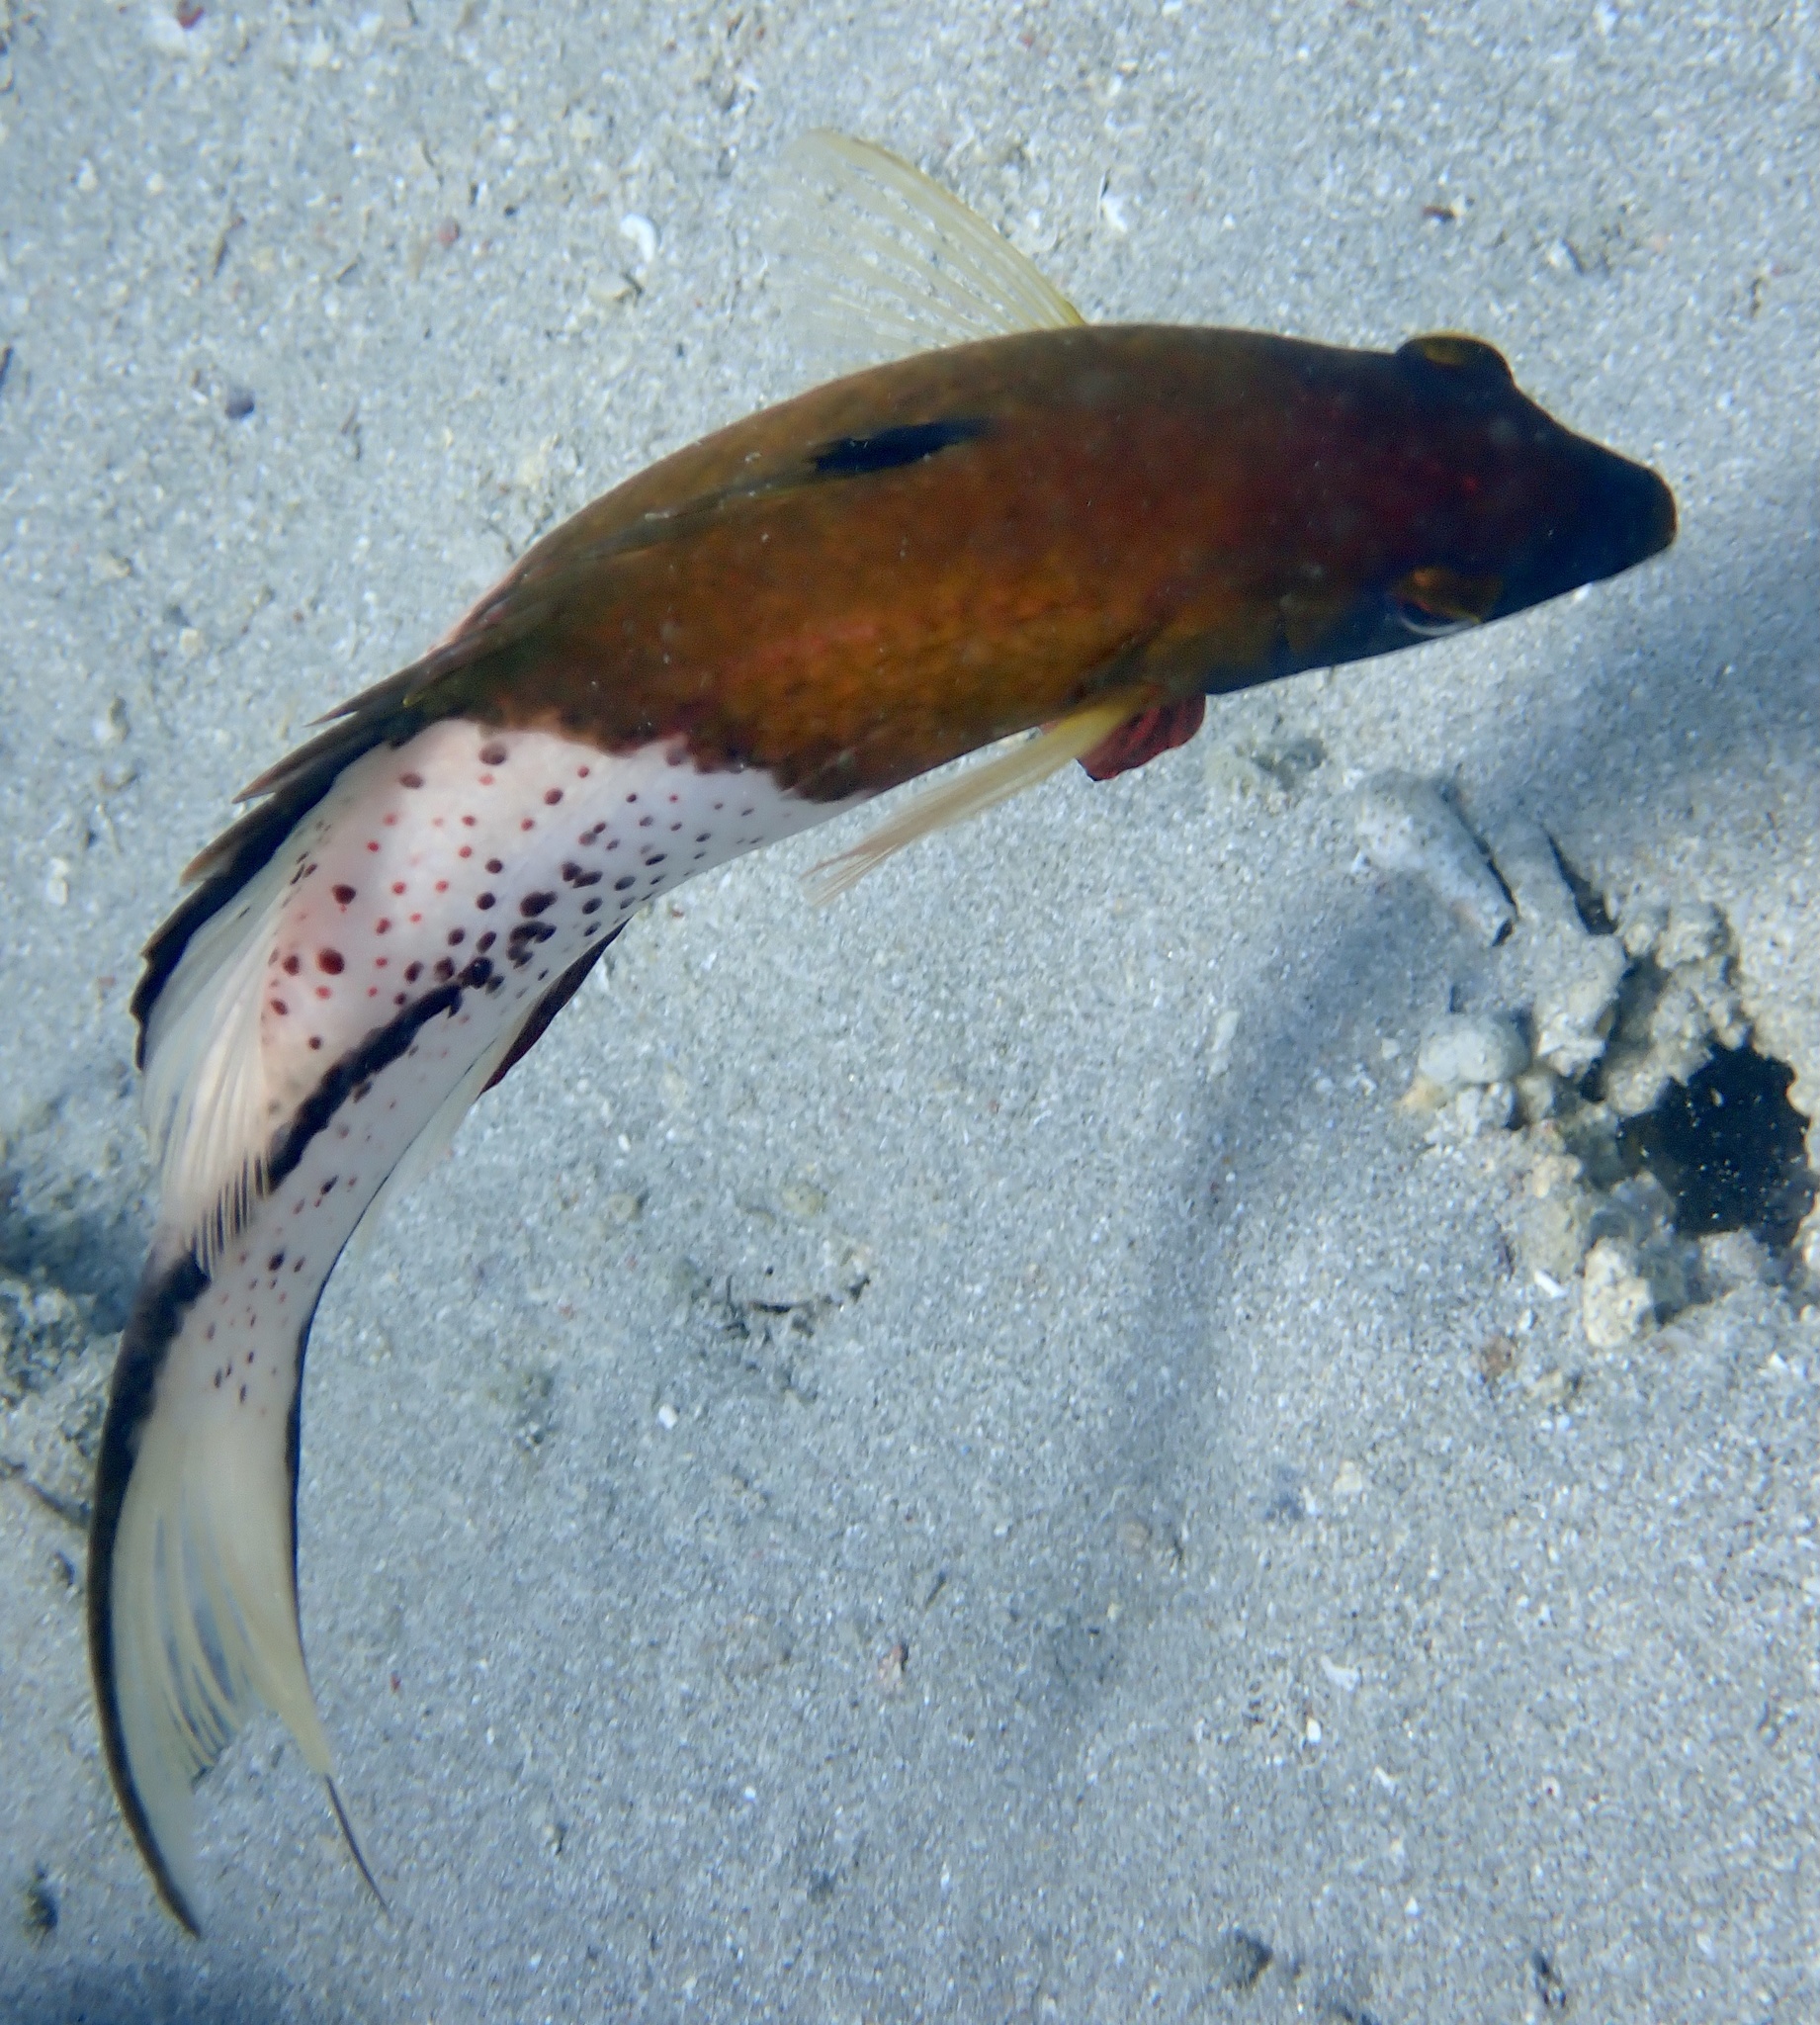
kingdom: Animalia
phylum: Chordata
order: Perciformes
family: Labridae
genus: Bodianus
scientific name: Bodianus anthioides
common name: Lyretail hogfish
